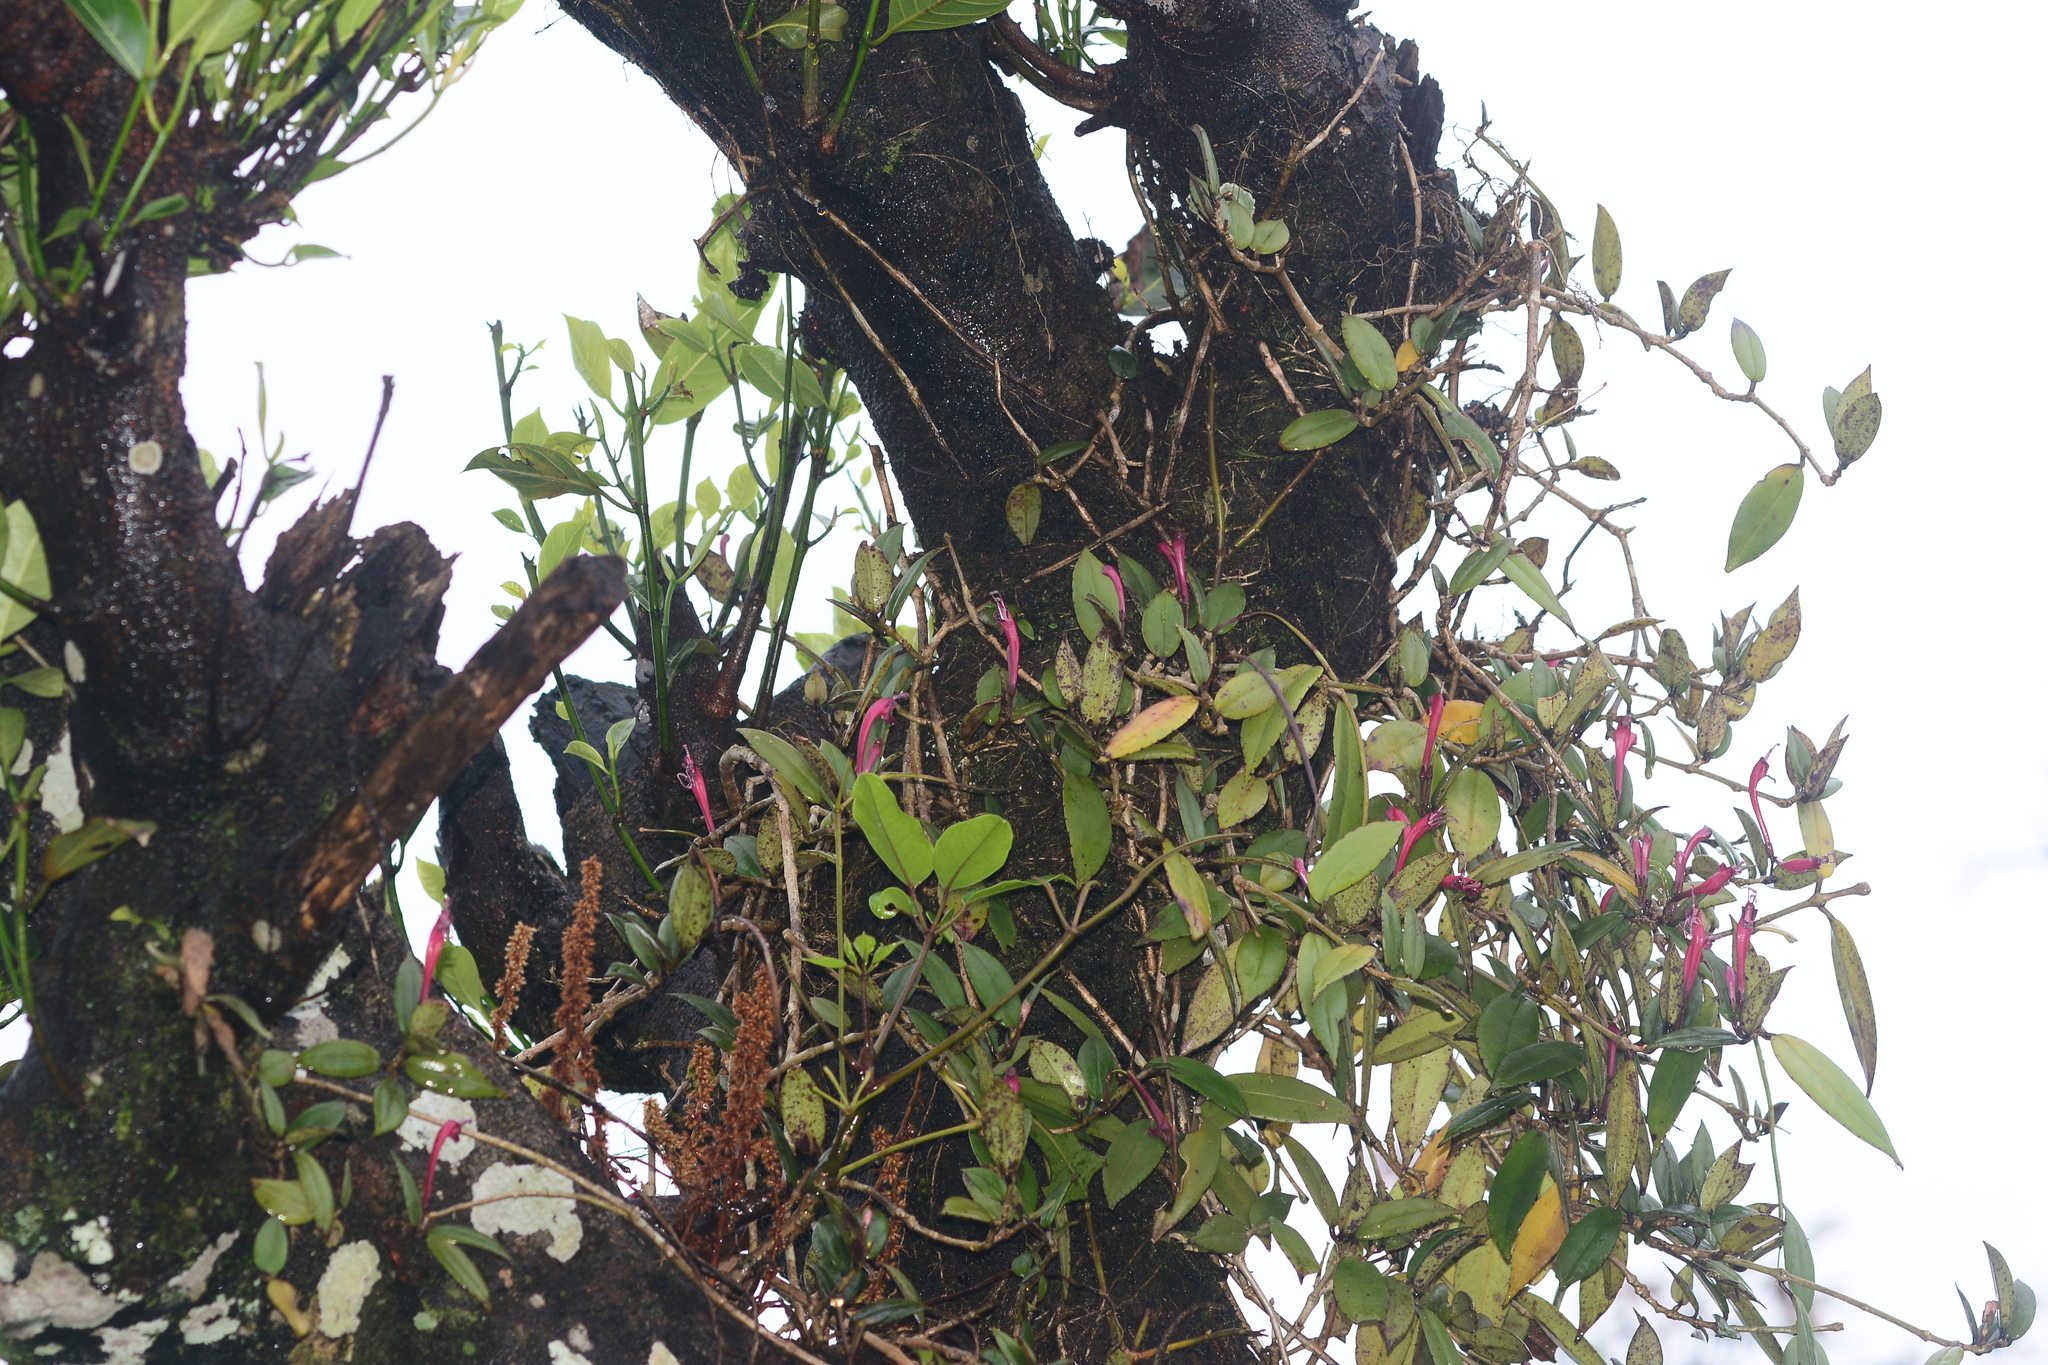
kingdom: Plantae
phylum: Tracheophyta
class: Magnoliopsida
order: Lamiales
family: Gesneriaceae
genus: Aeschynanthus
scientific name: Aeschynanthus perrottetii
